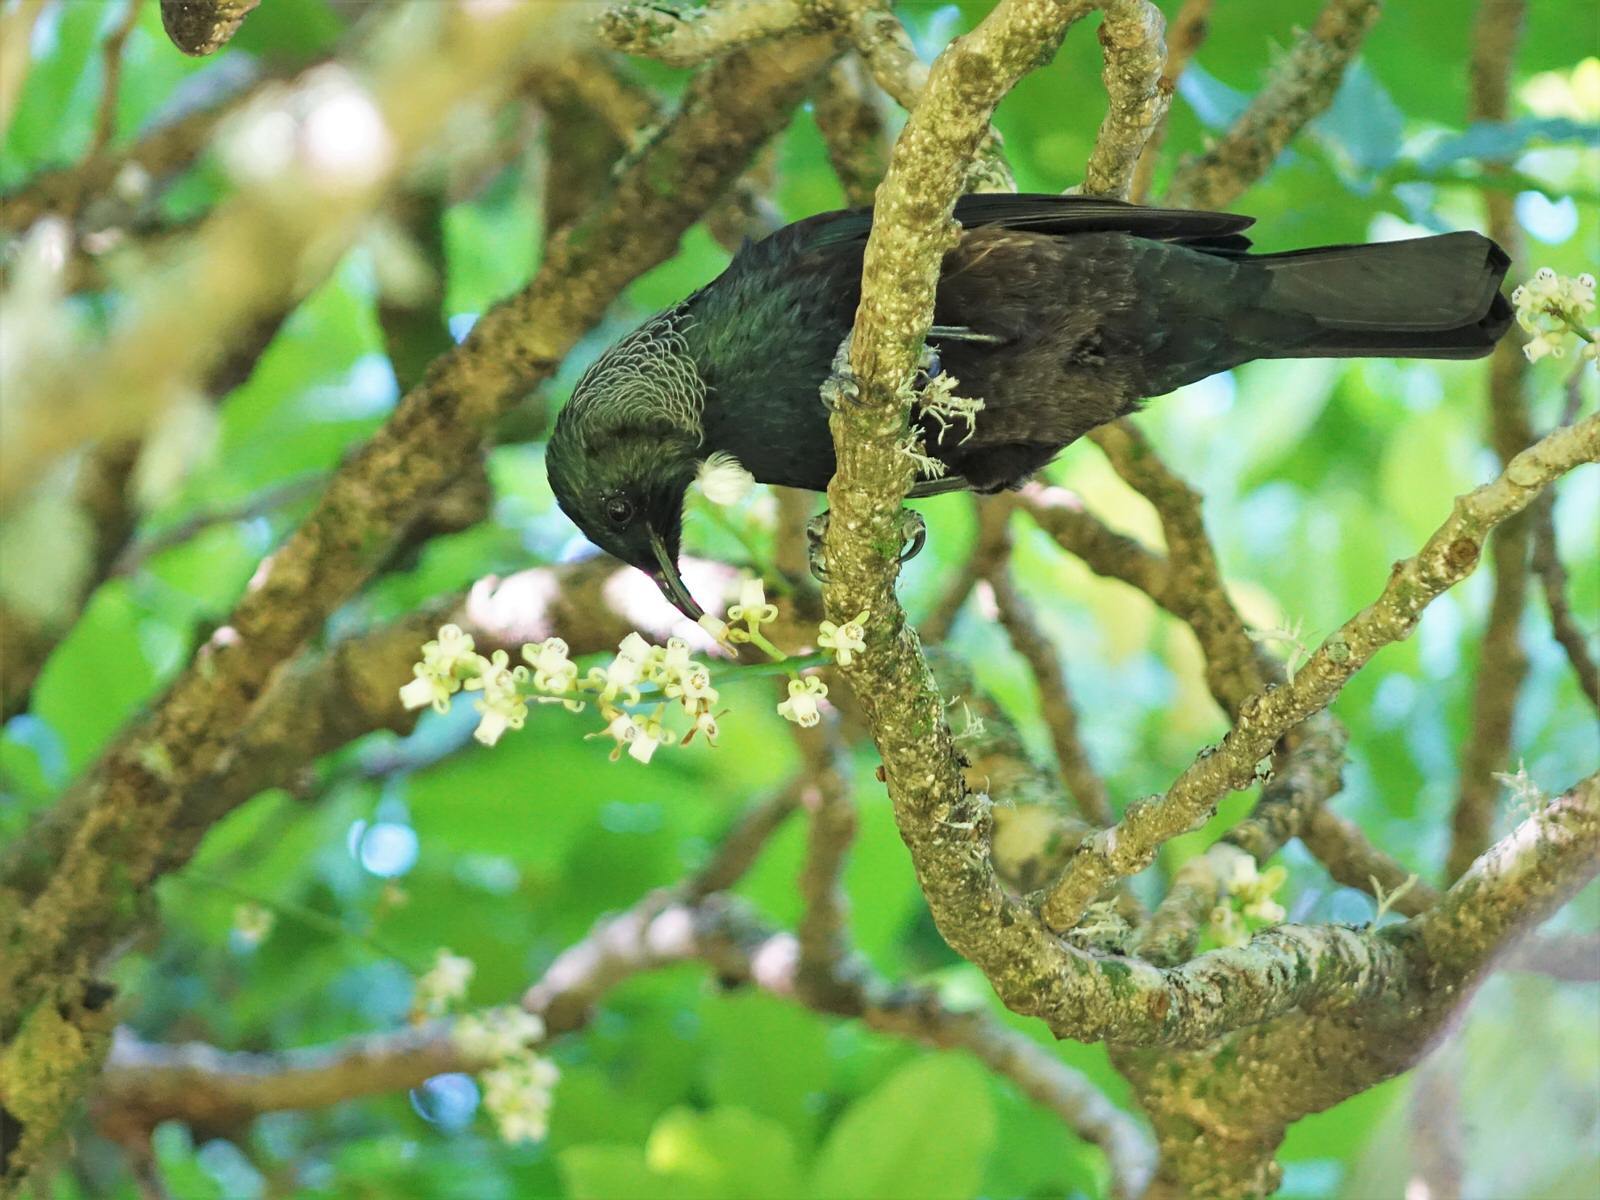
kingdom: Animalia
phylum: Chordata
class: Aves
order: Passeriformes
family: Meliphagidae
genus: Prosthemadera
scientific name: Prosthemadera novaeseelandiae
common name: Tui
